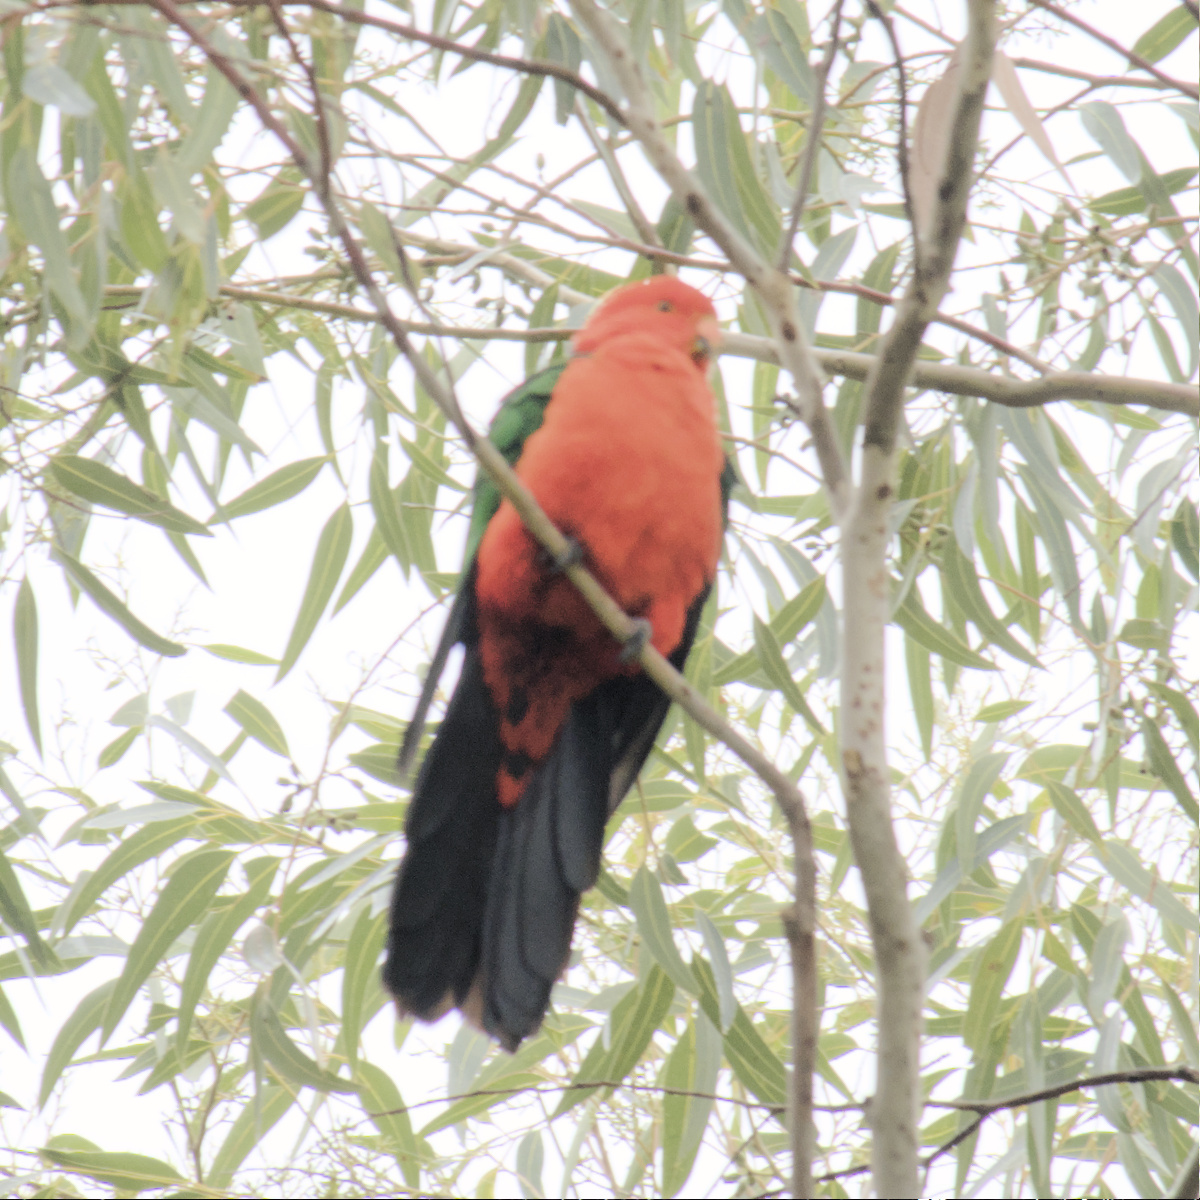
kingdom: Animalia
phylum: Chordata
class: Aves
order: Psittaciformes
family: Psittacidae
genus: Alisterus
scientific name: Alisterus scapularis
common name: Australian king parrot
